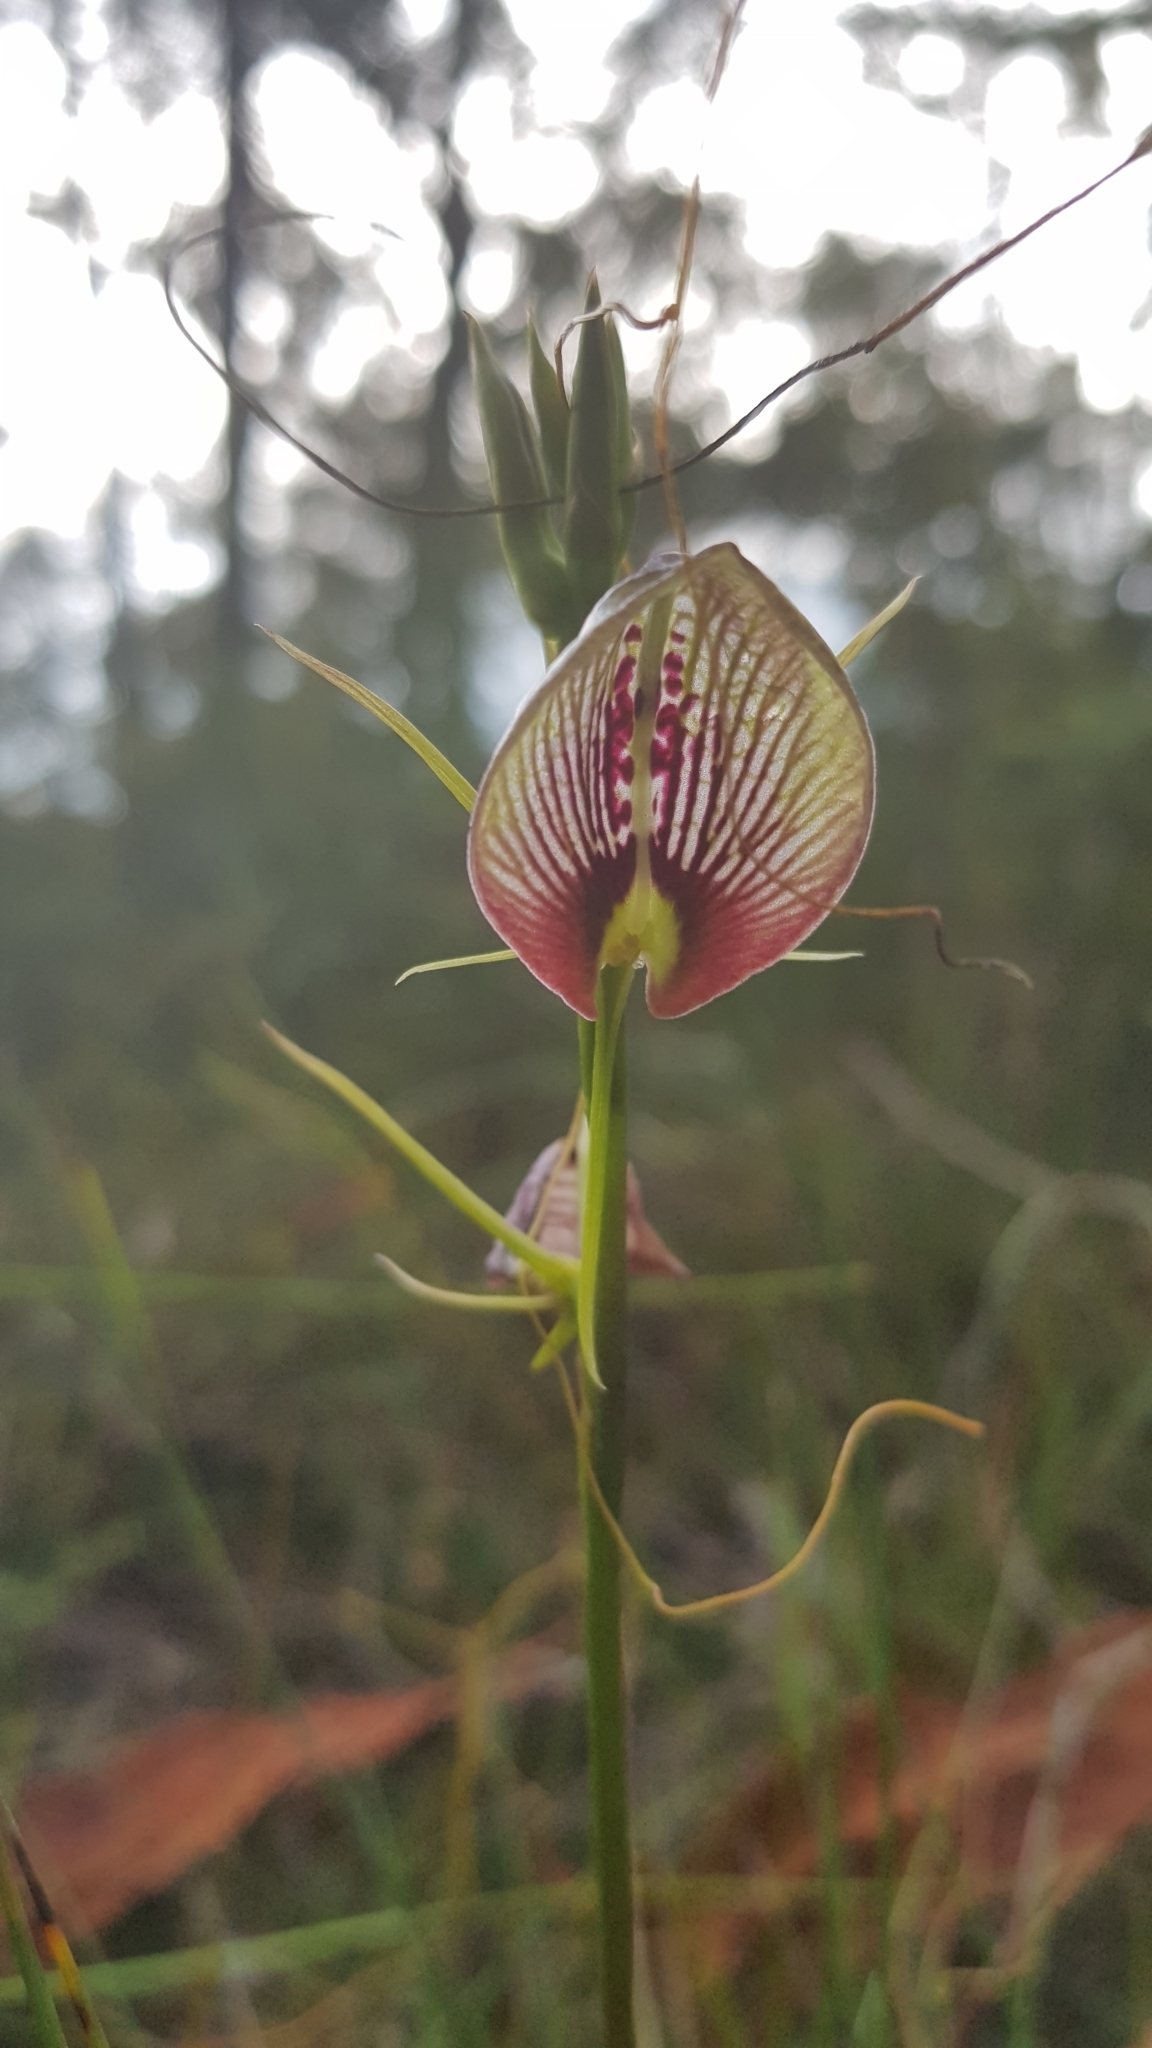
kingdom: Plantae
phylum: Tracheophyta
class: Liliopsida
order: Asparagales
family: Orchidaceae
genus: Cryptostylis
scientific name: Cryptostylis erecta
